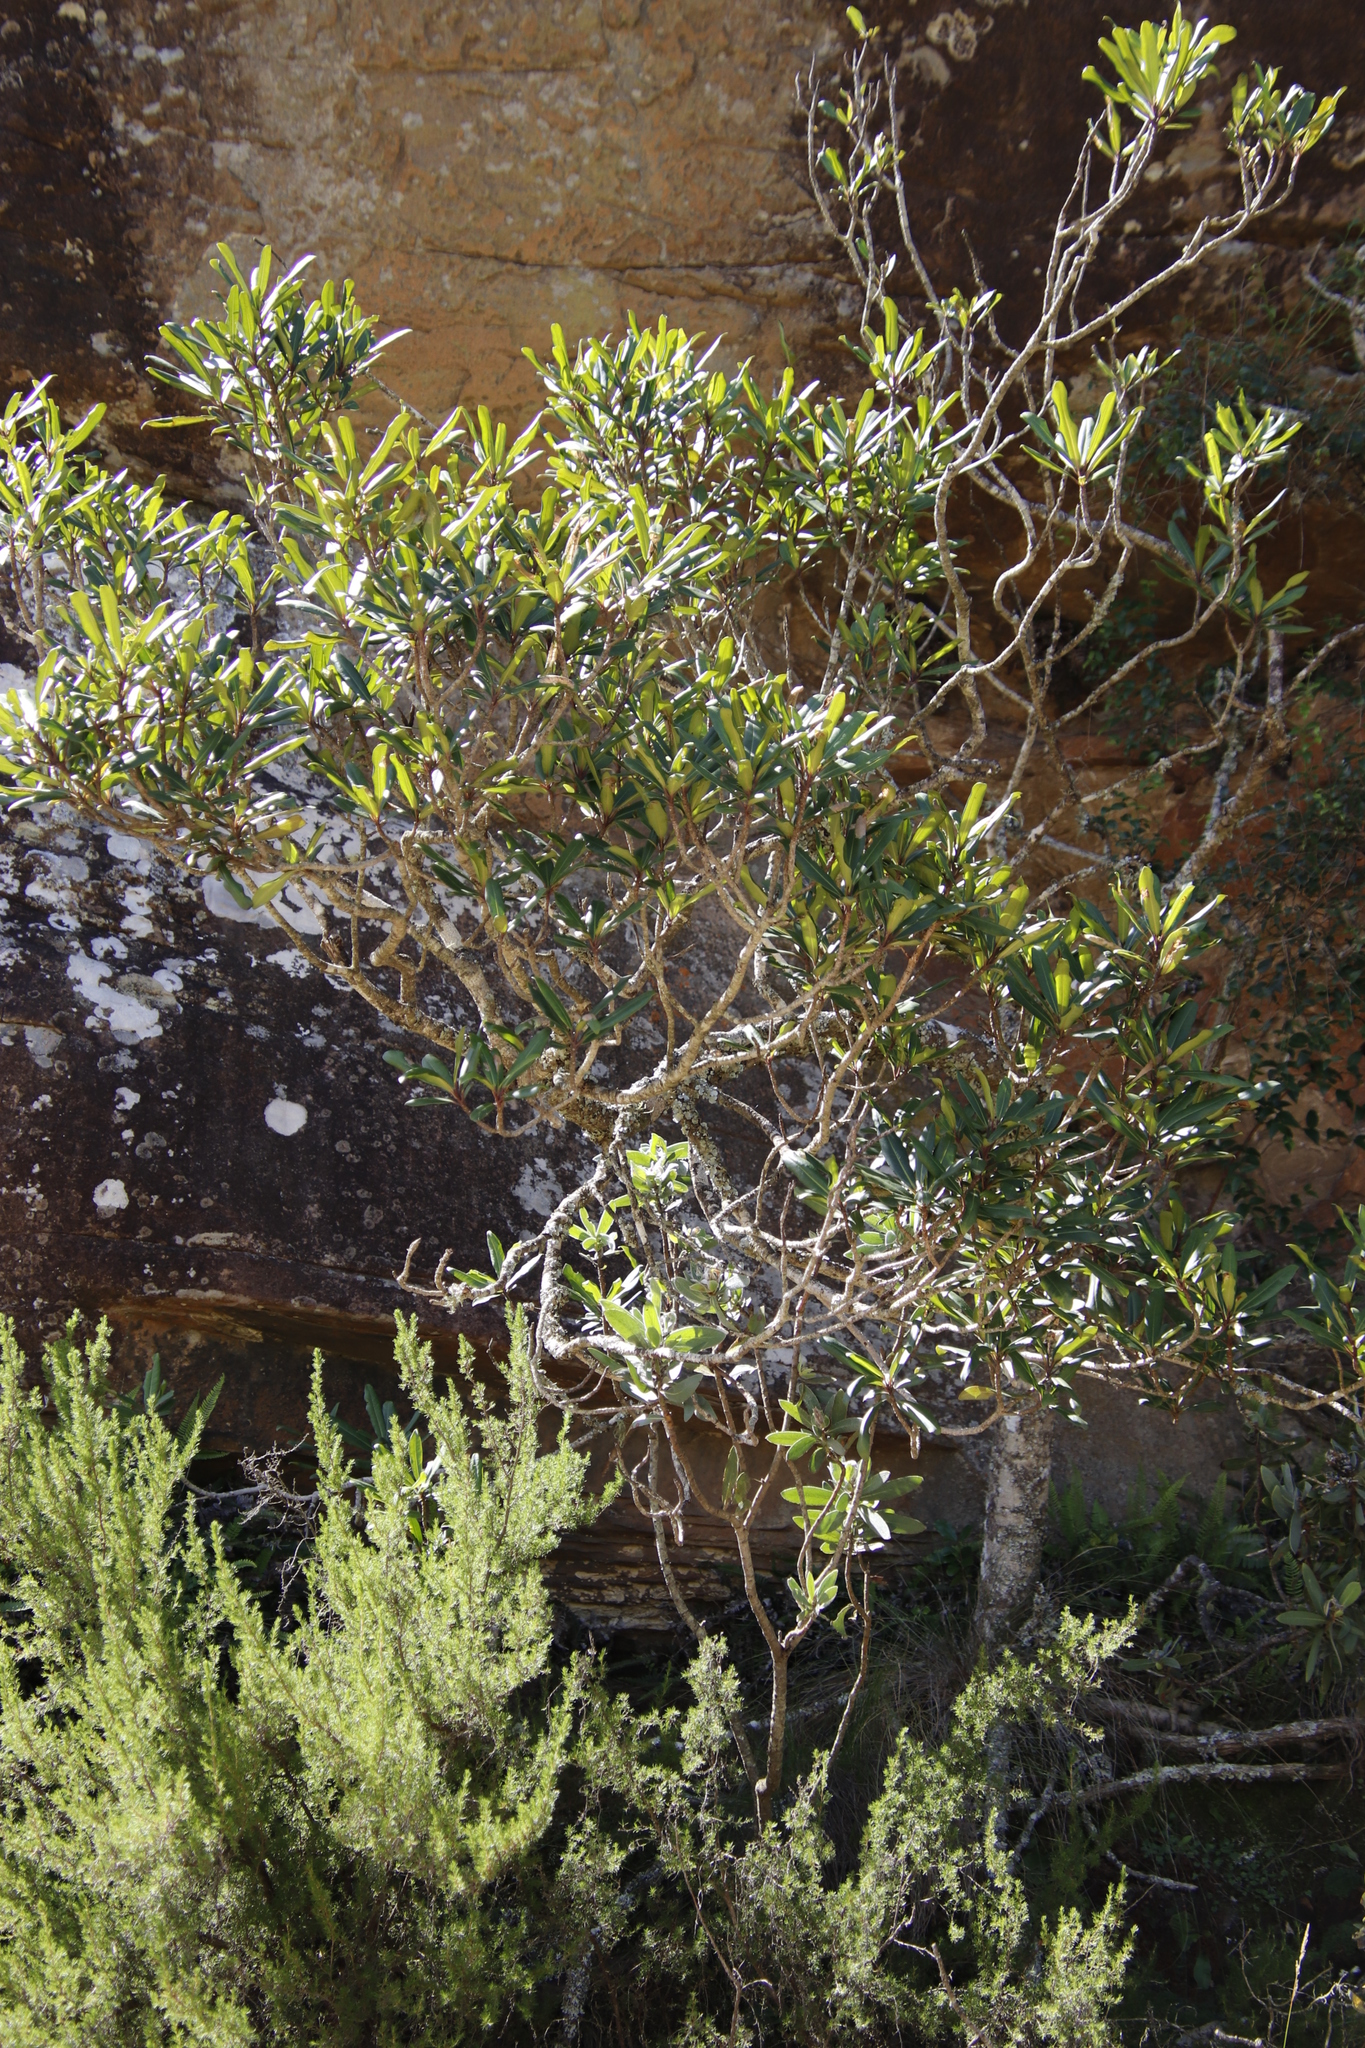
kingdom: Plantae
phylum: Tracheophyta
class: Magnoliopsida
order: Ericales
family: Primulaceae
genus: Myrsine
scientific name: Myrsine melanophloeos
